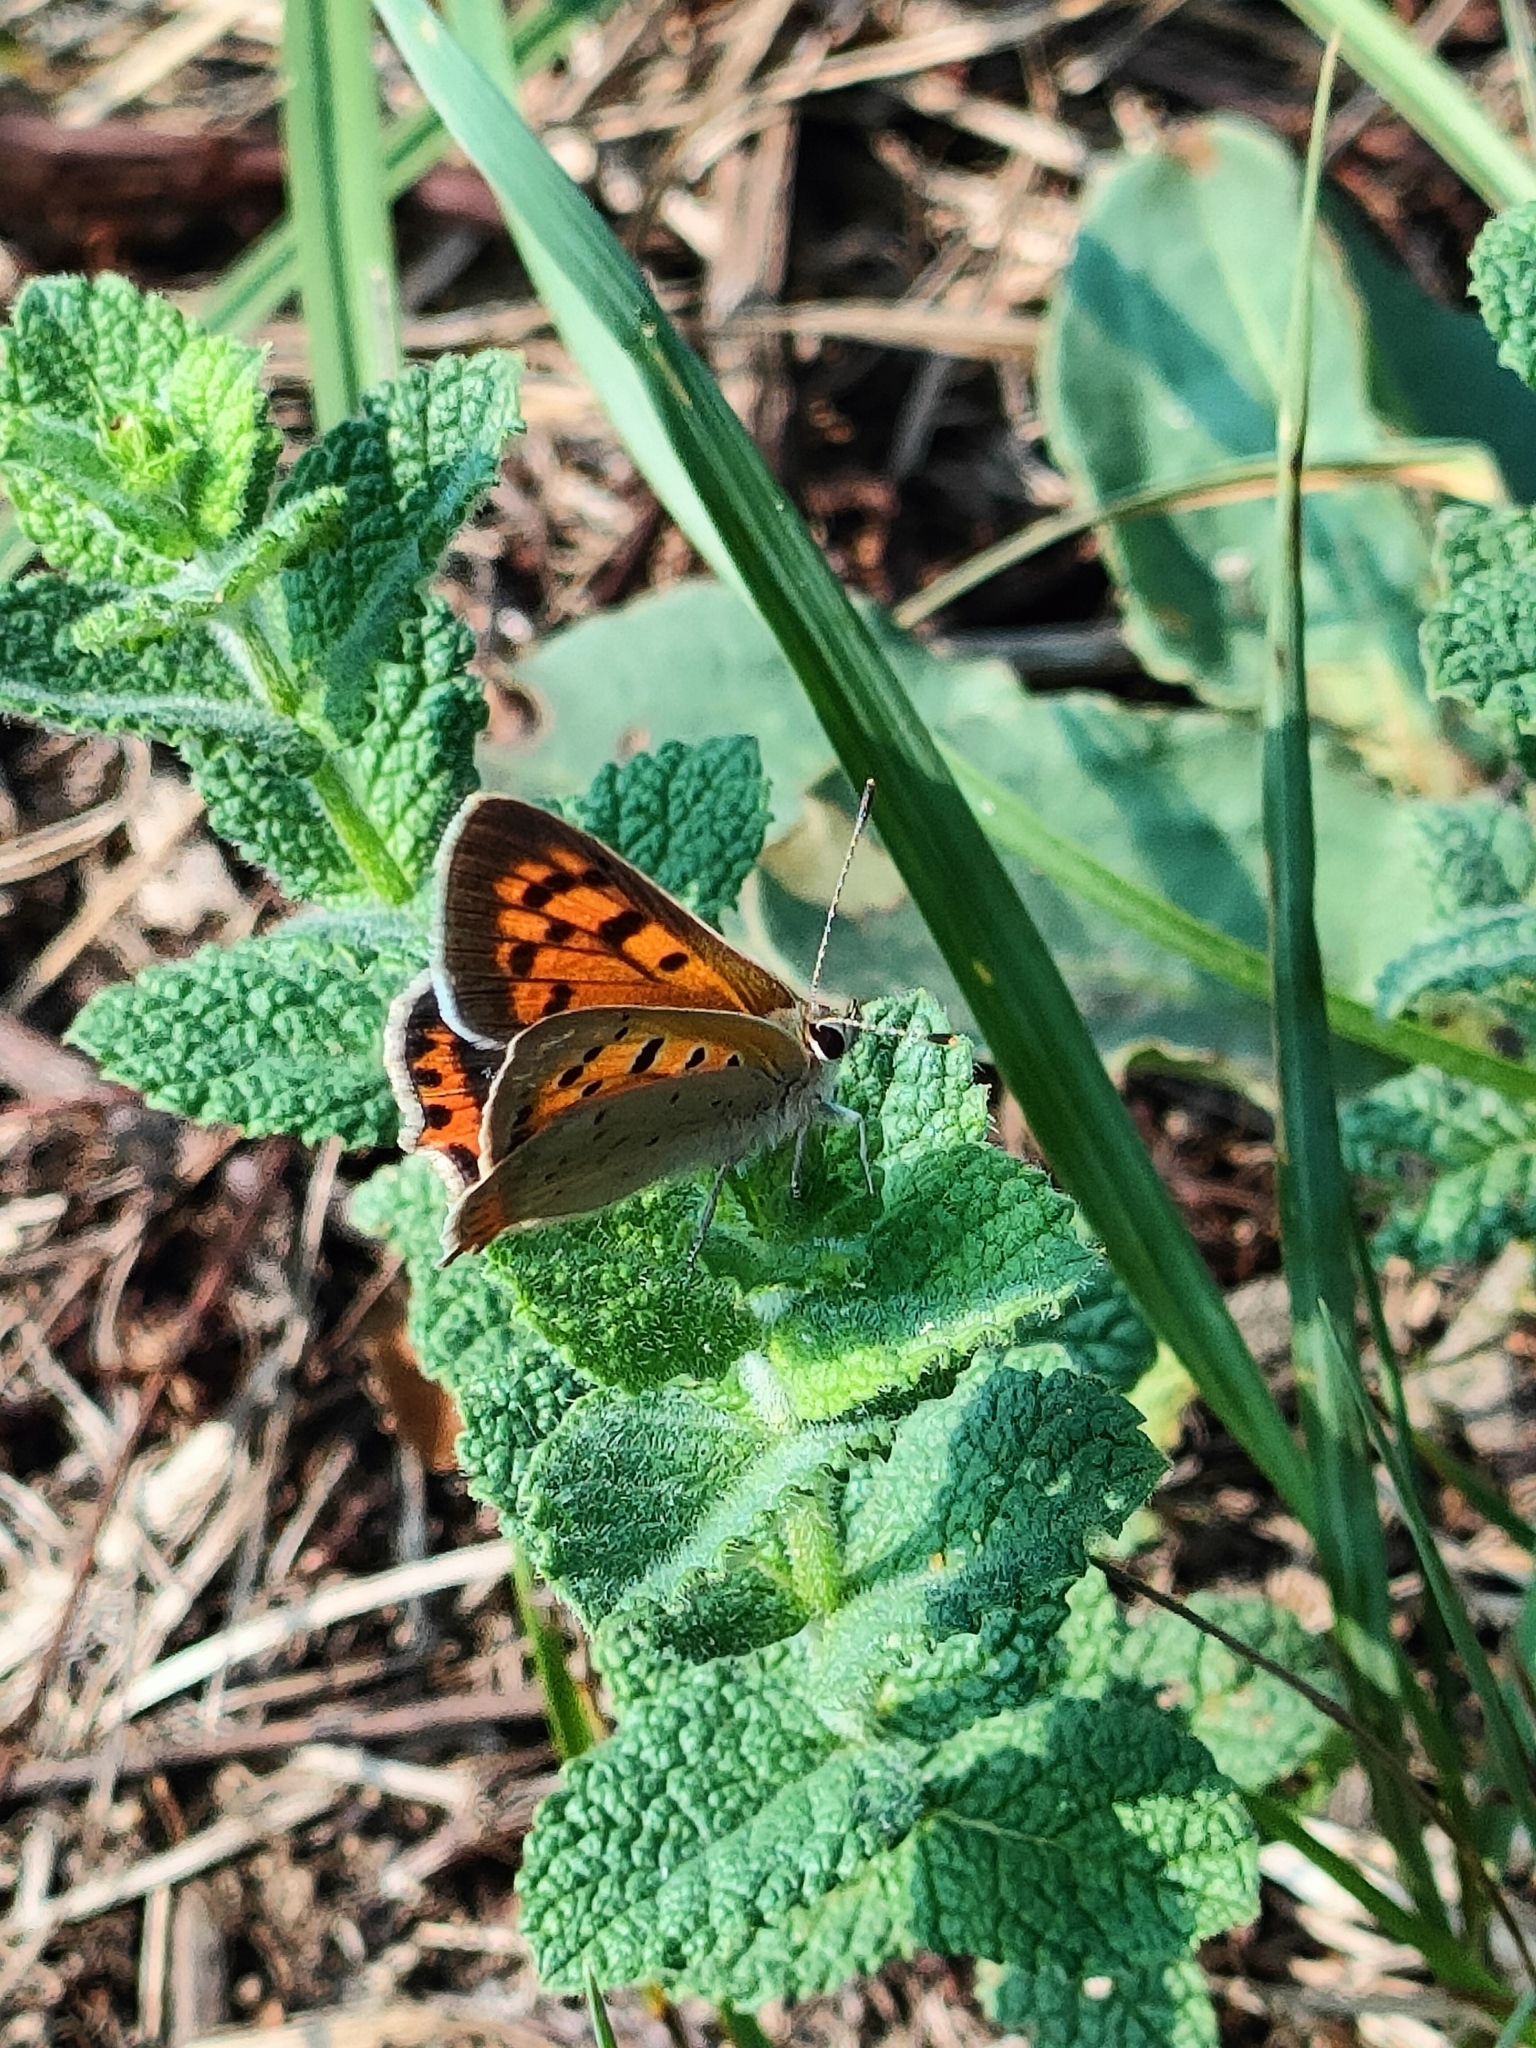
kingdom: Animalia
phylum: Arthropoda
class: Insecta
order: Lepidoptera
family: Lycaenidae
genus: Lycaena
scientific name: Lycaena phlaeas
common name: Small copper
